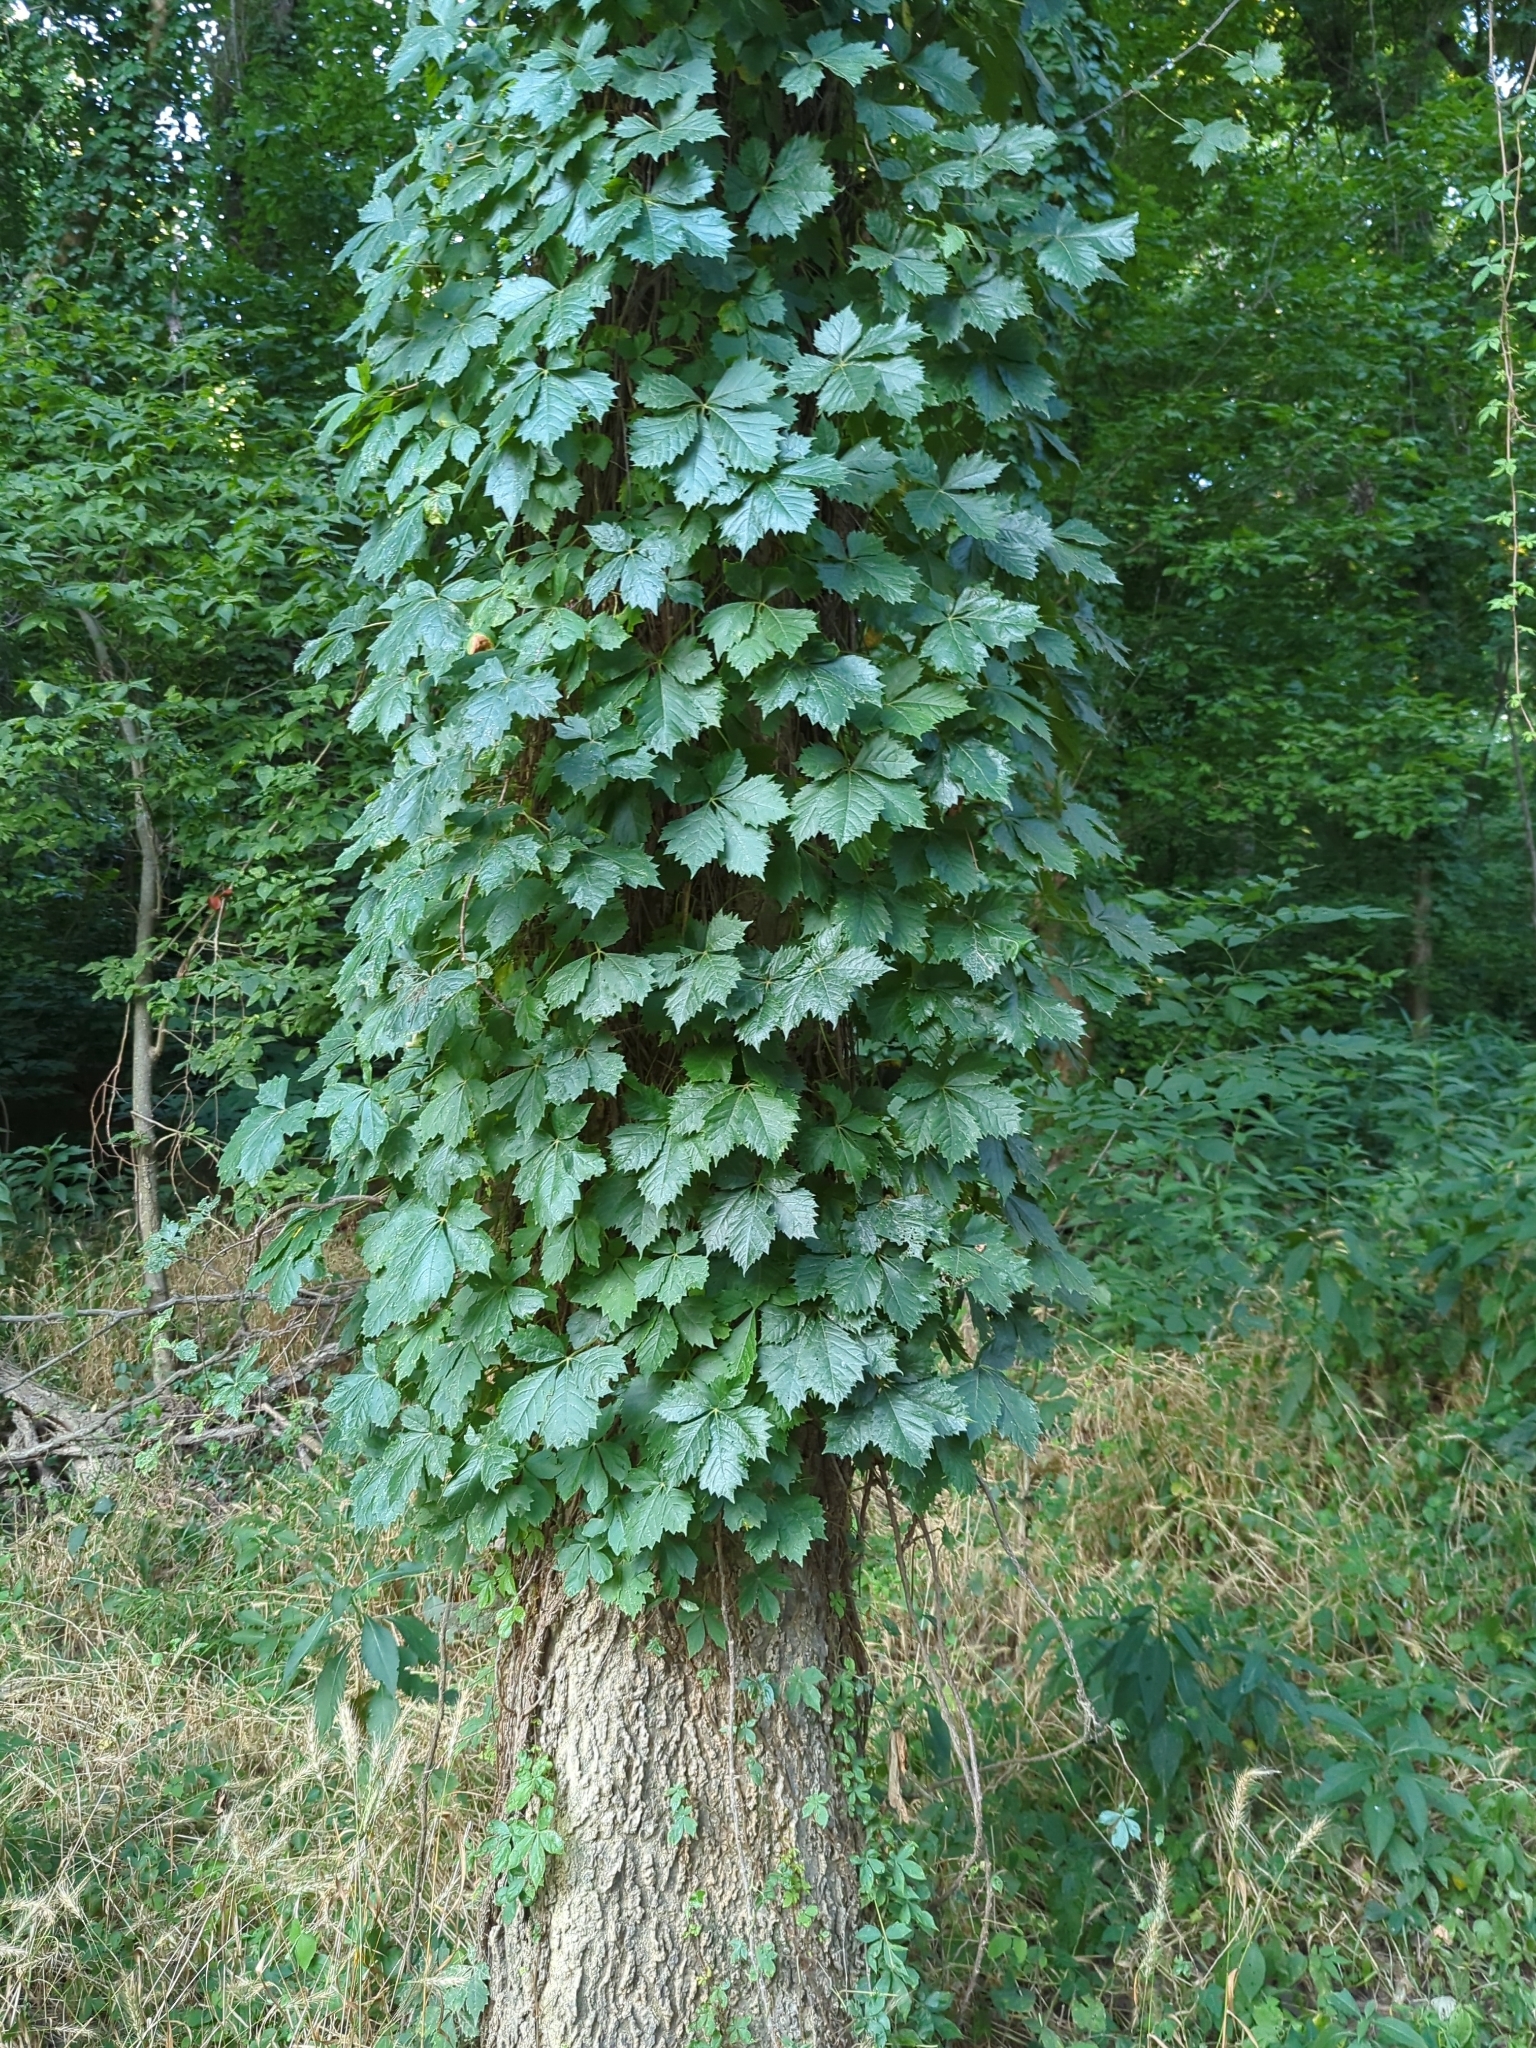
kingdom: Plantae
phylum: Tracheophyta
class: Magnoliopsida
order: Vitales
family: Vitaceae
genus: Parthenocissus
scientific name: Parthenocissus quinquefolia
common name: Virginia-creeper
